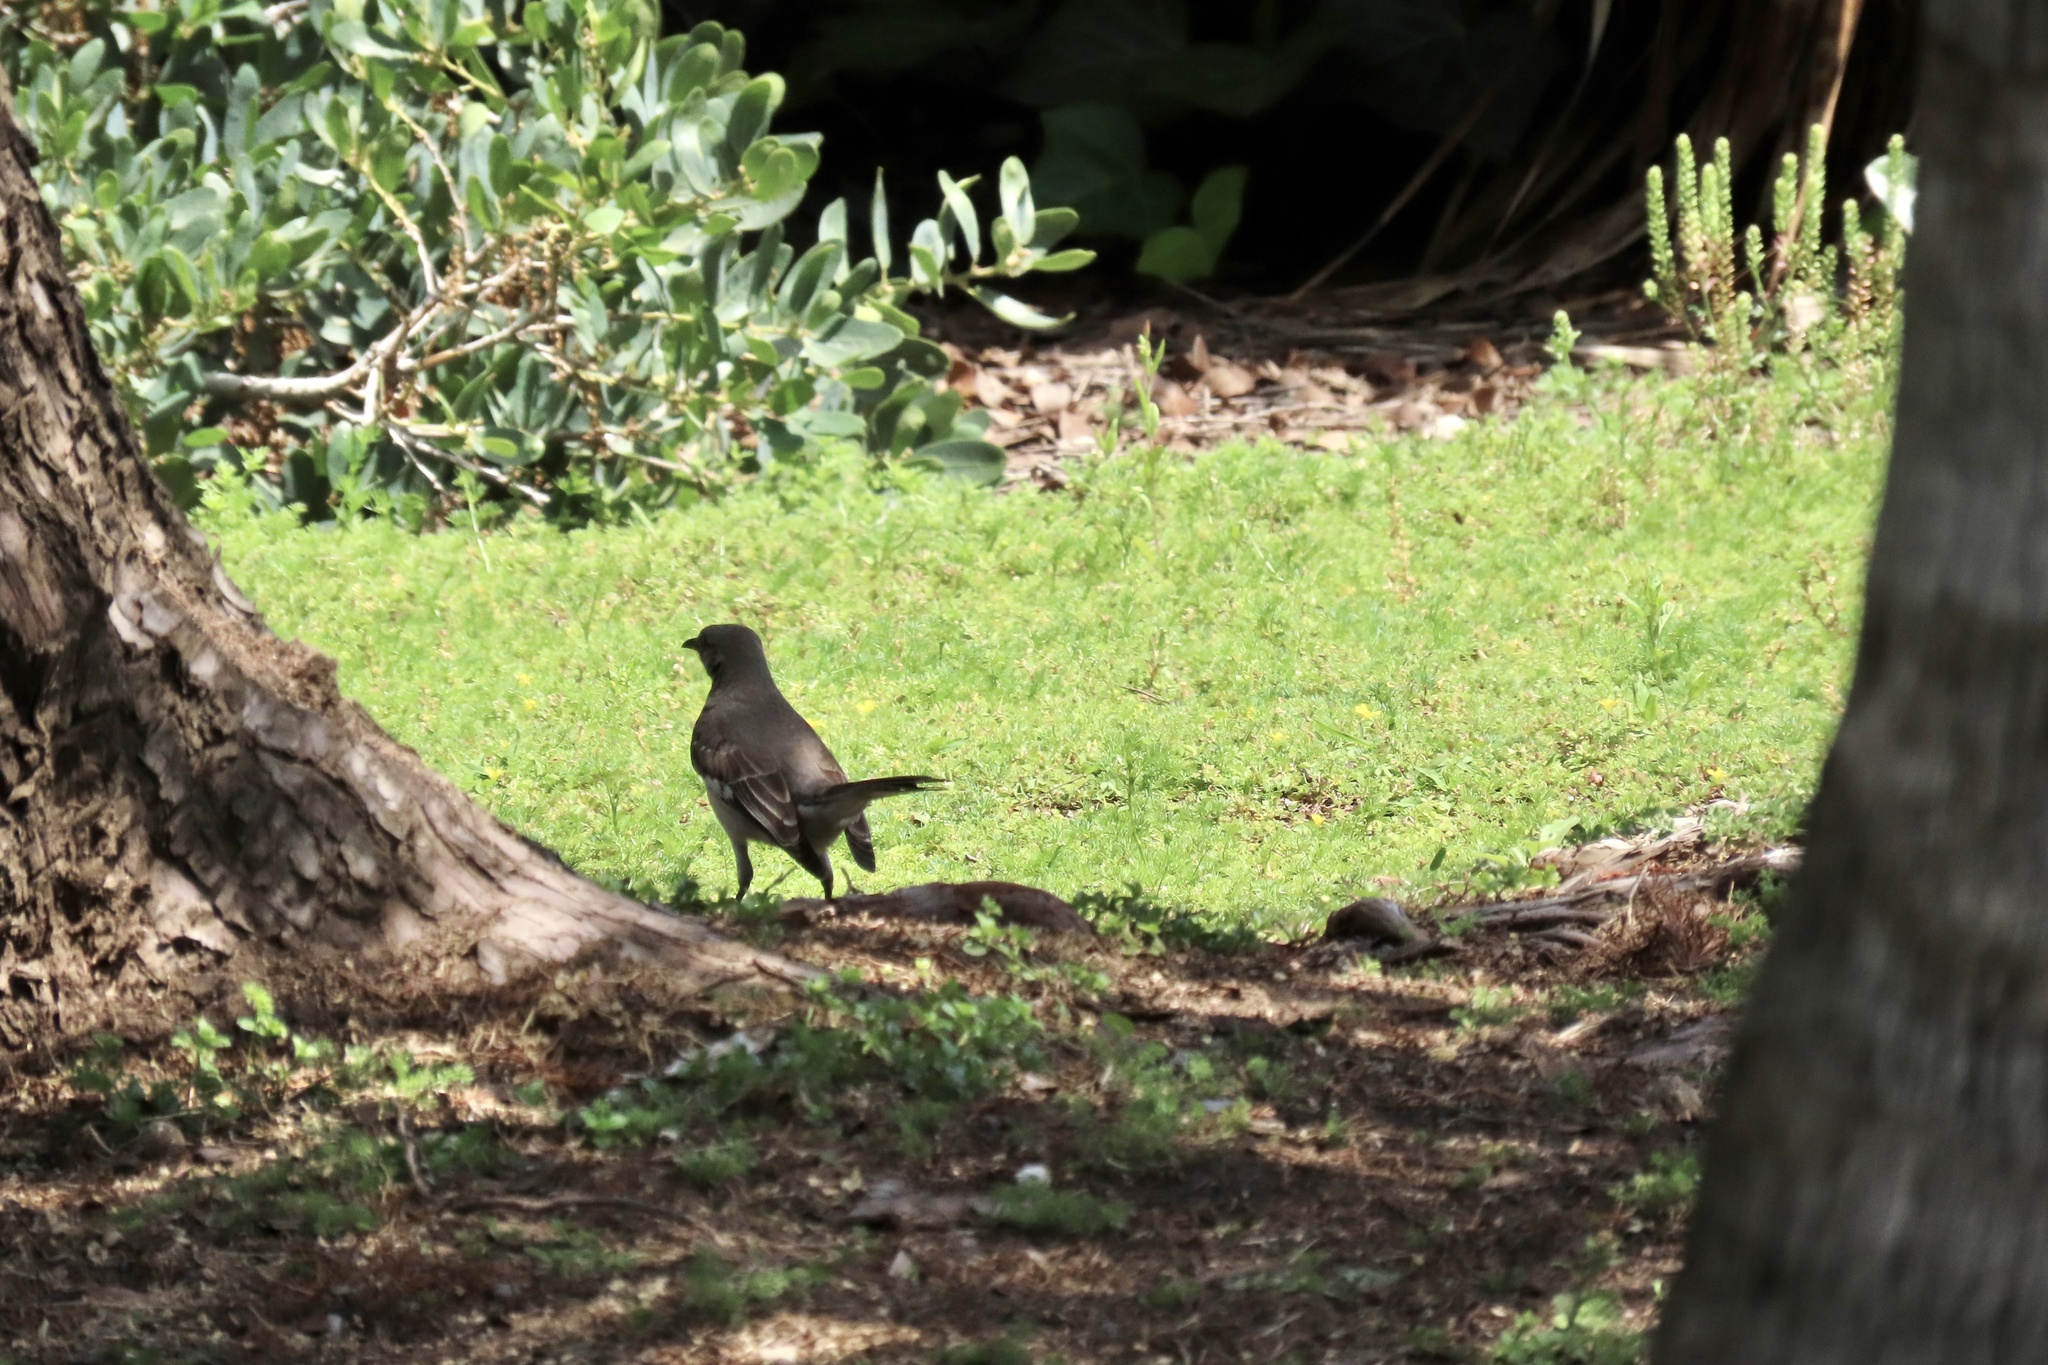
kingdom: Animalia
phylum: Chordata
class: Aves
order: Passeriformes
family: Mimidae
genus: Mimus
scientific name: Mimus polyglottos
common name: Northern mockingbird
